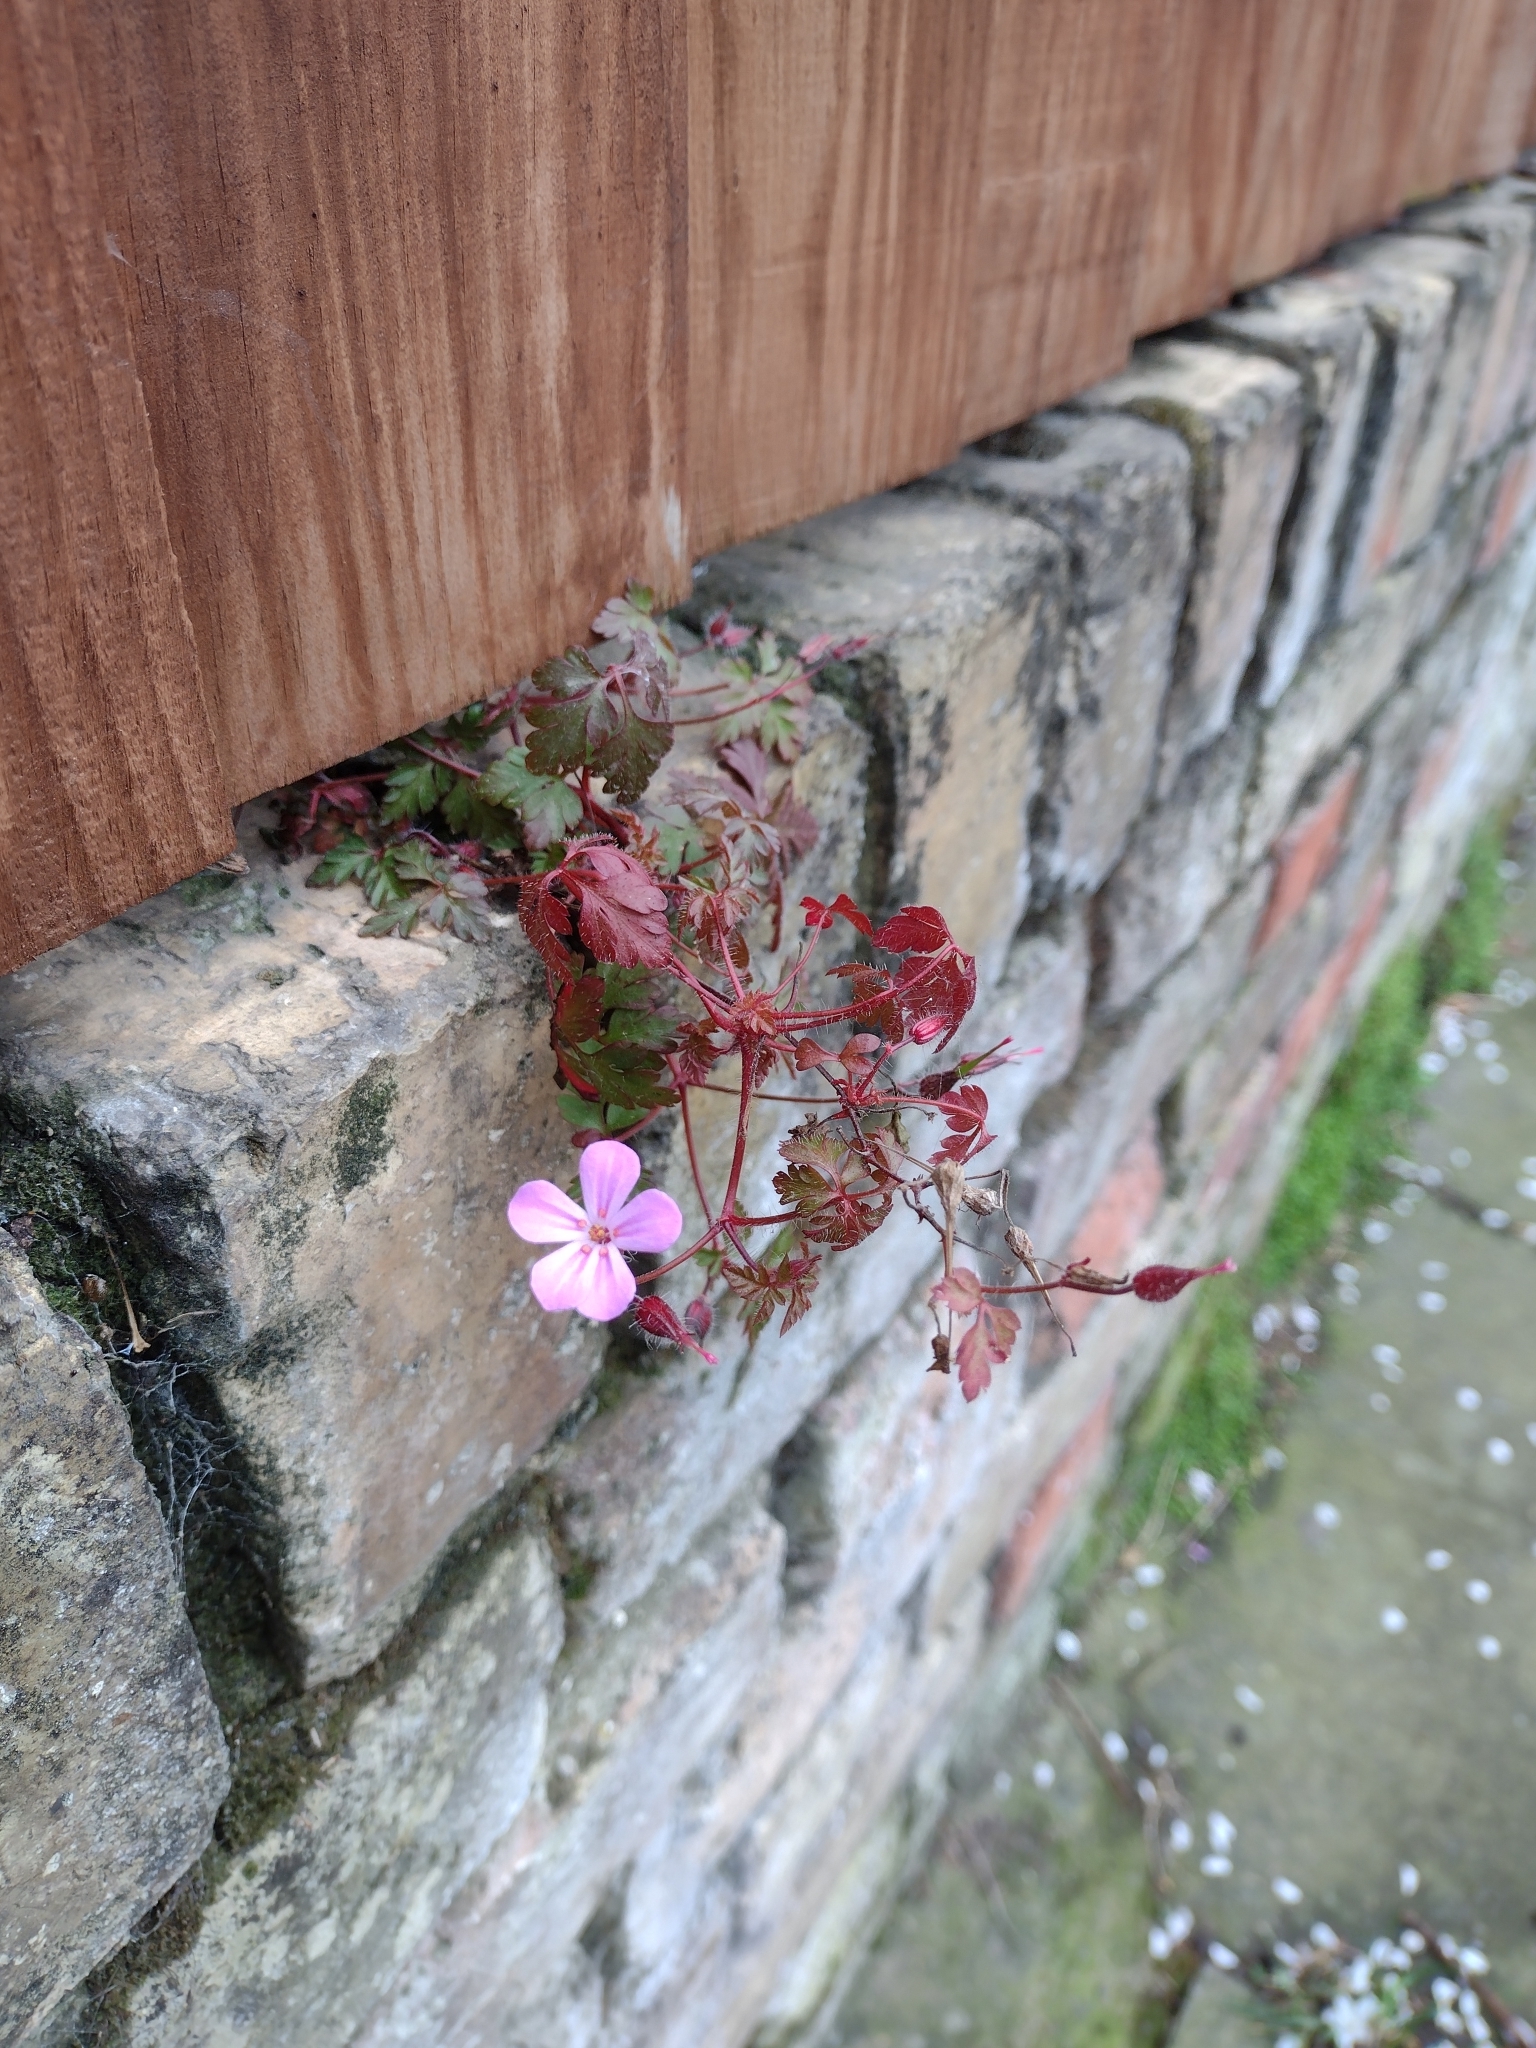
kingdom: Plantae
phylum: Tracheophyta
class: Magnoliopsida
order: Geraniales
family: Geraniaceae
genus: Geranium
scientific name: Geranium robertianum
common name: Herb-robert
